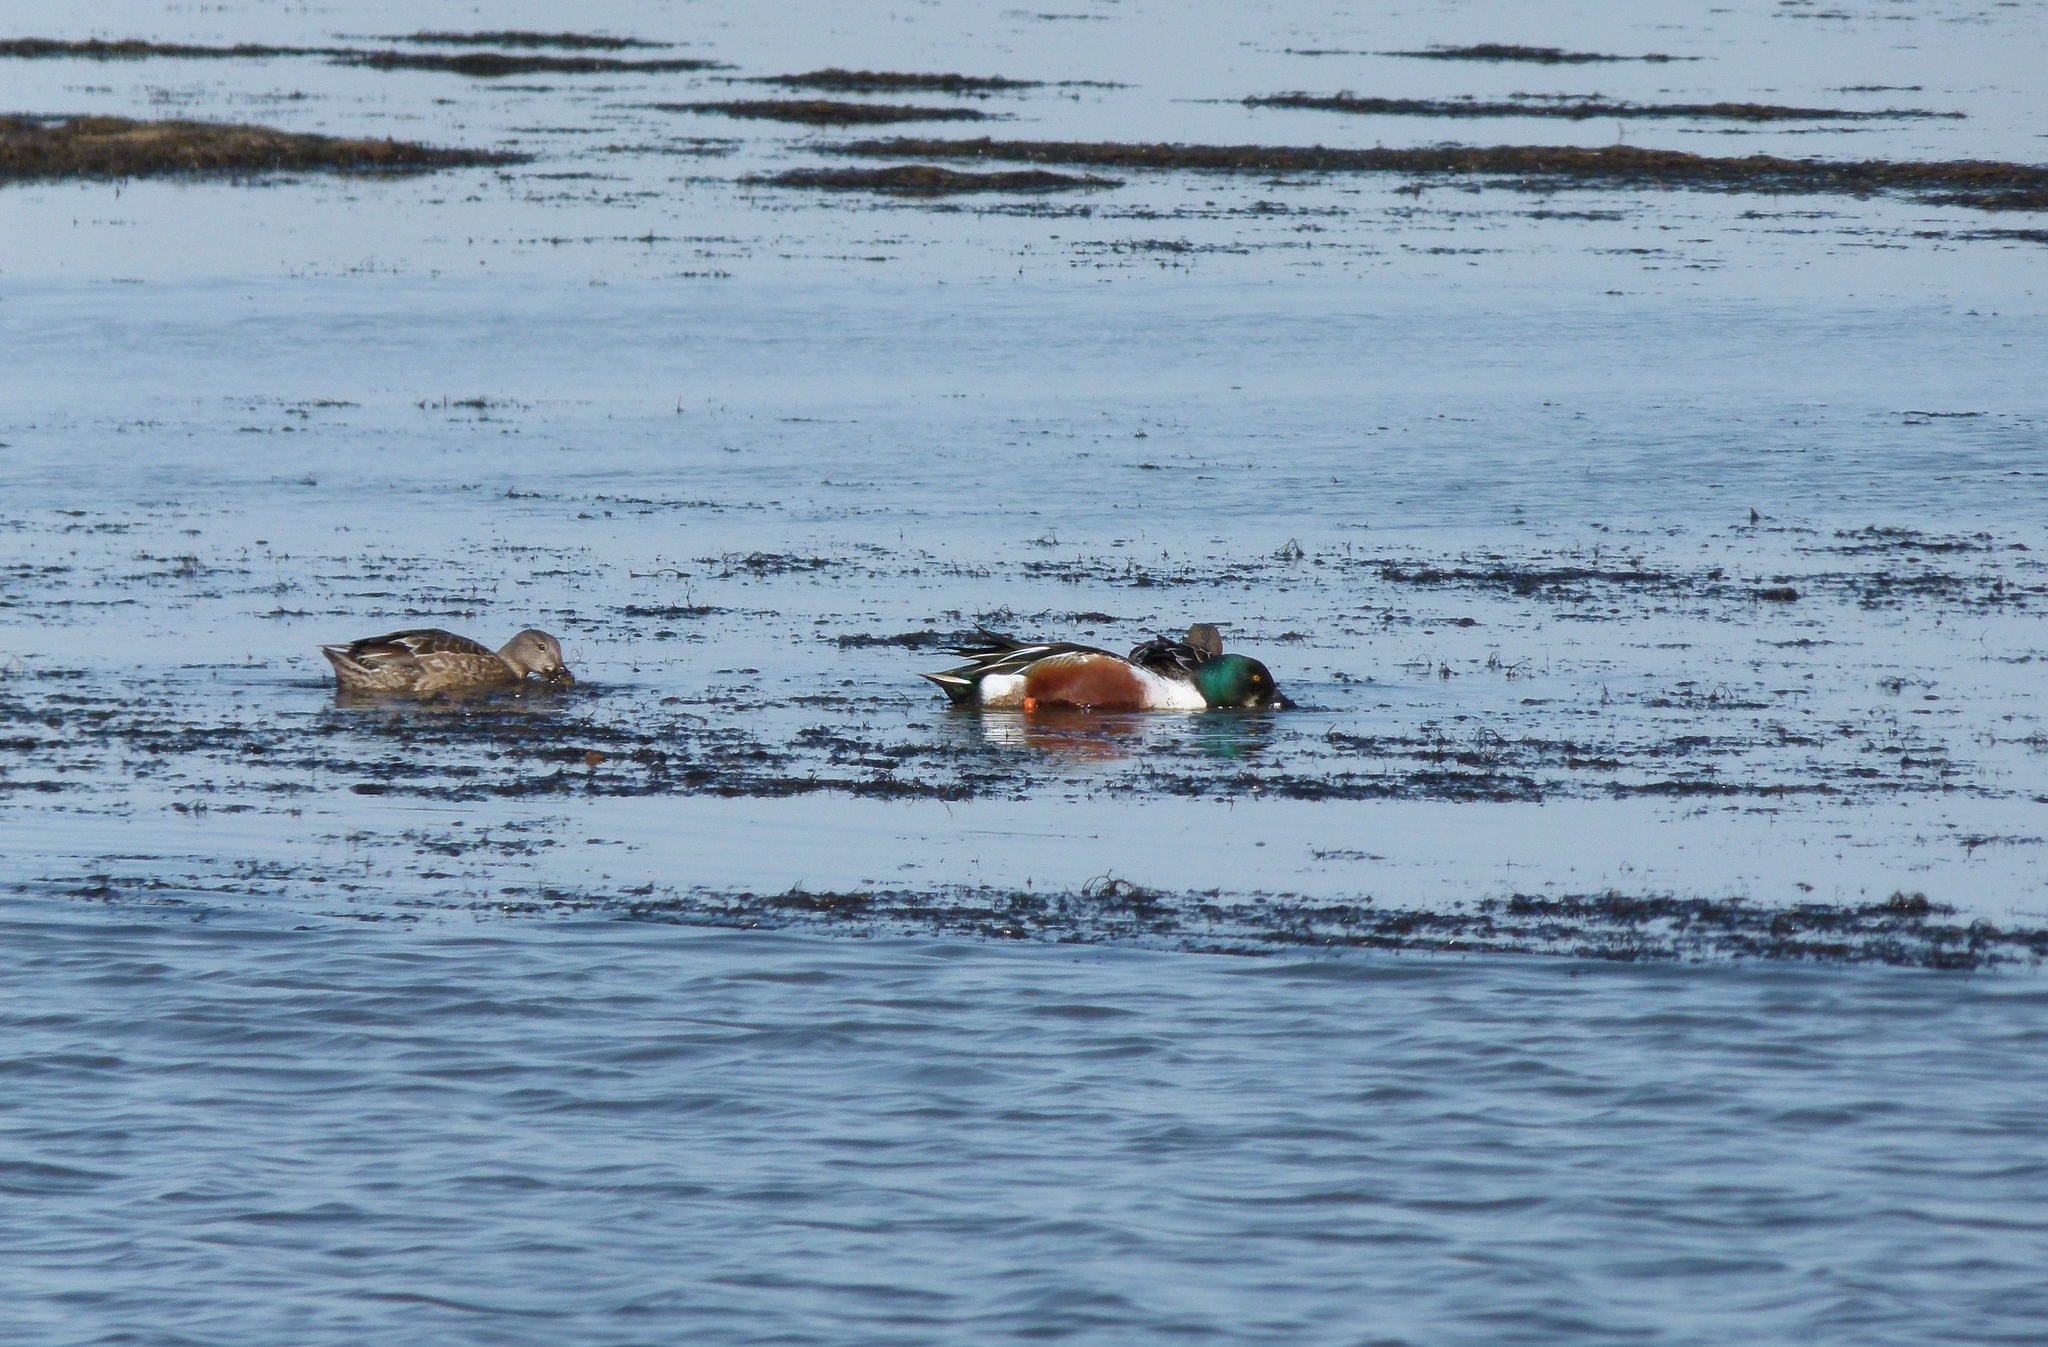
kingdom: Animalia
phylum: Chordata
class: Aves
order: Anseriformes
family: Anatidae
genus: Spatula
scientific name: Spatula clypeata
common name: Northern shoveler
